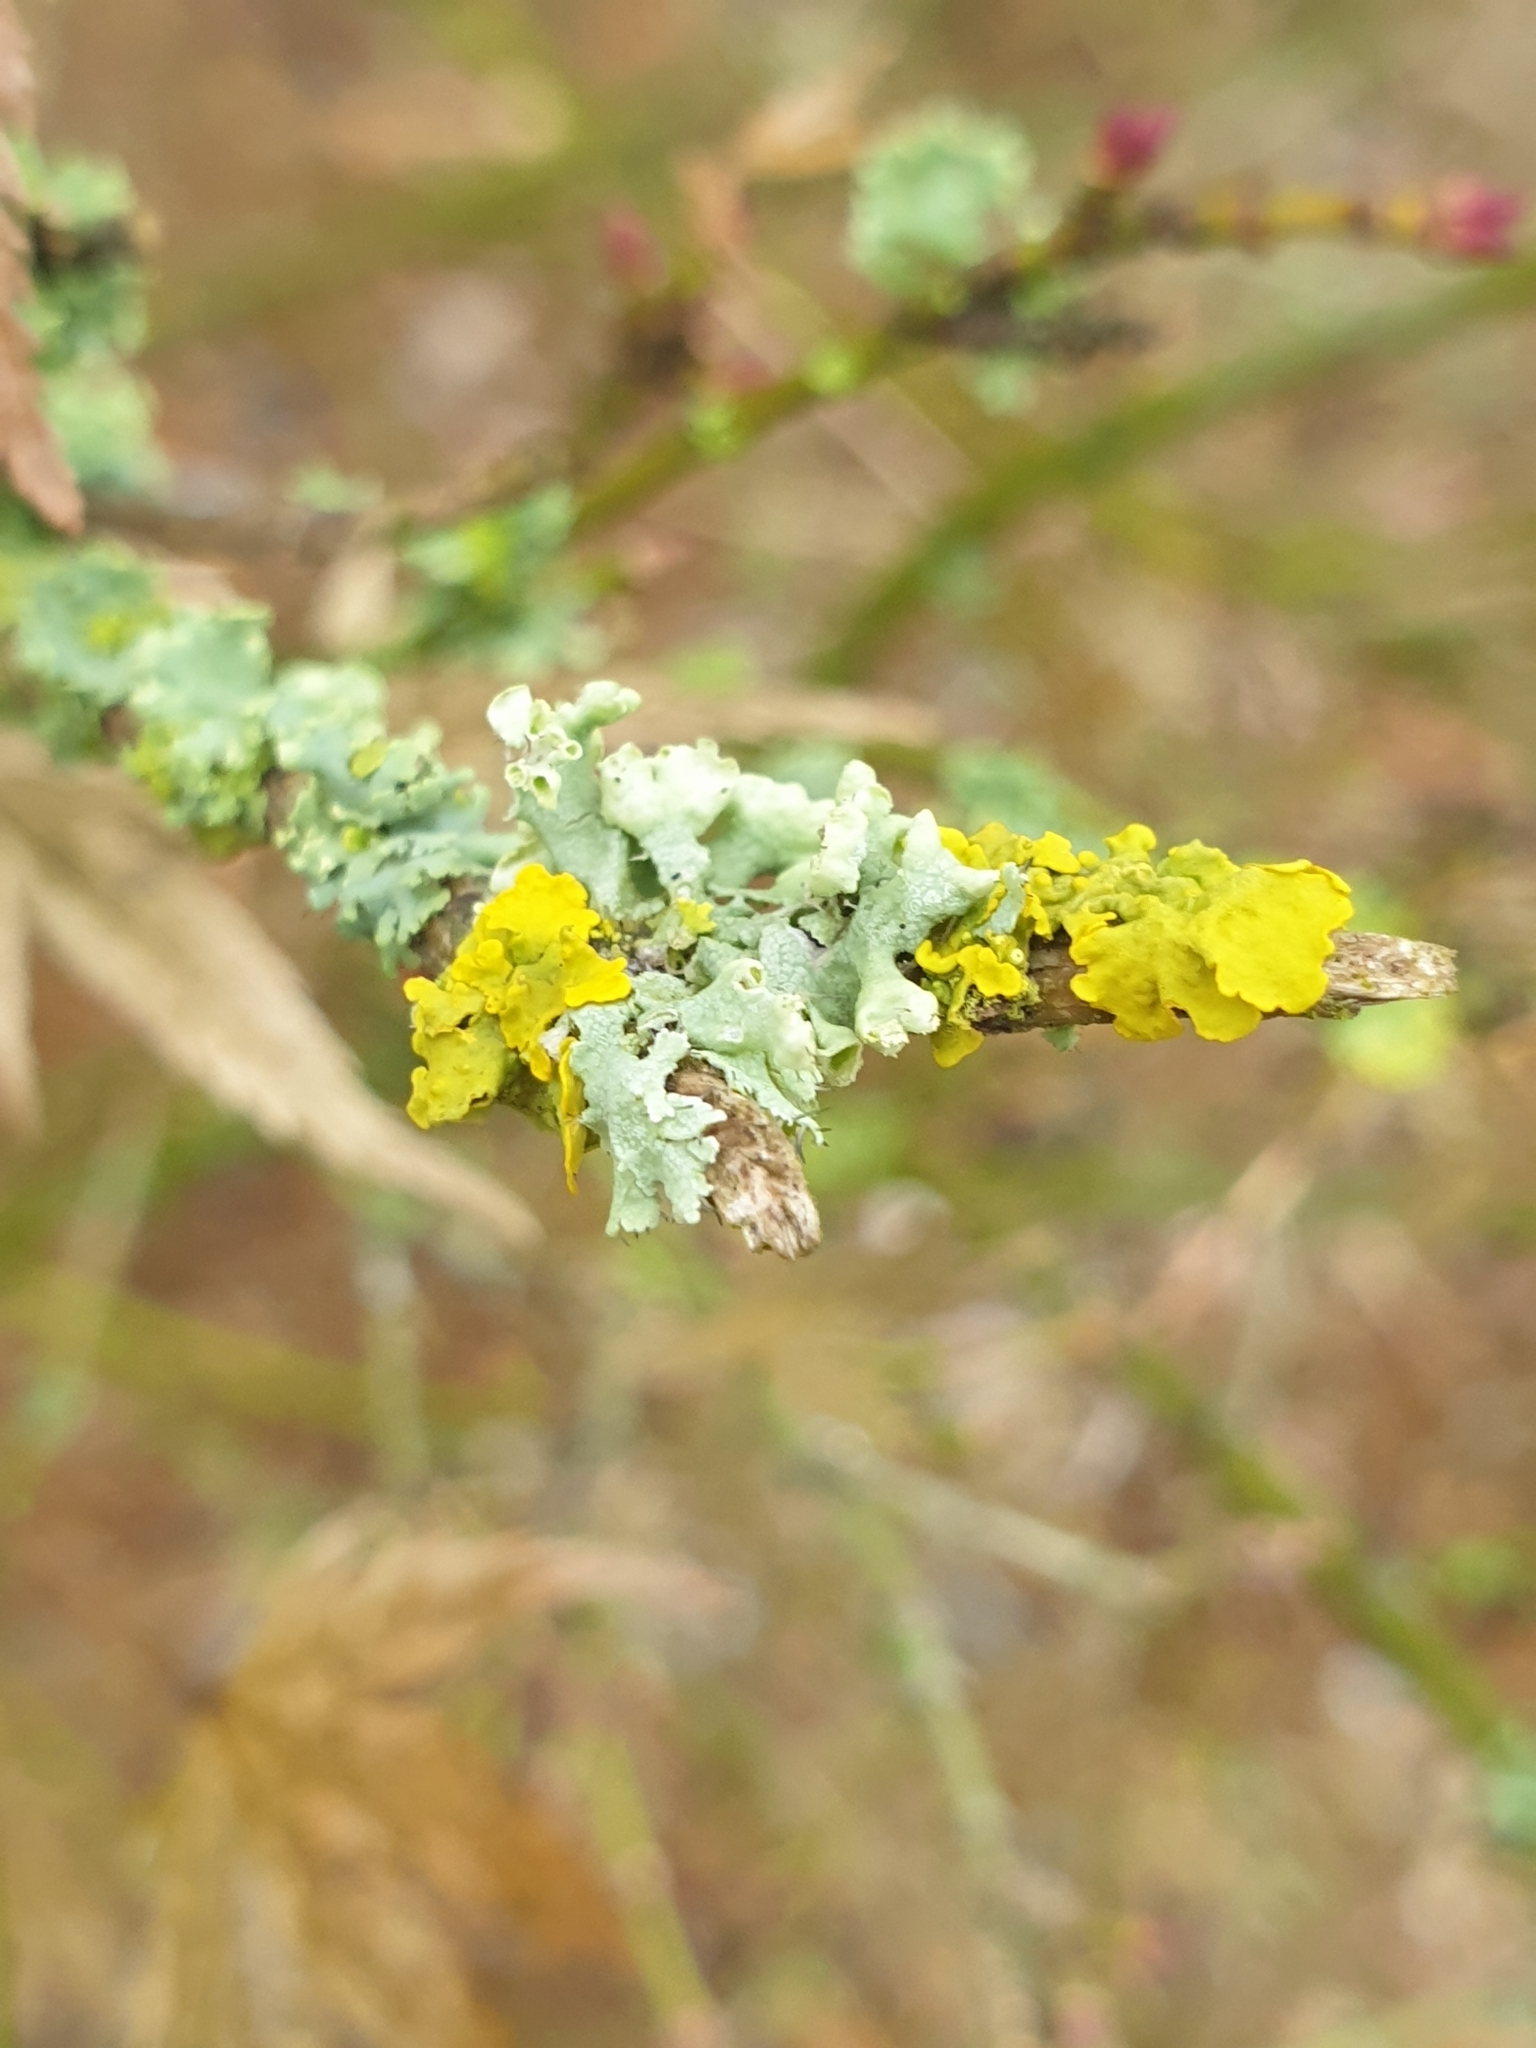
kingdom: Fungi
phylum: Ascomycota
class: Lecanoromycetes
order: Teloschistales
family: Teloschistaceae
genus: Xanthoria
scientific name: Xanthoria parietina
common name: Common orange lichen
